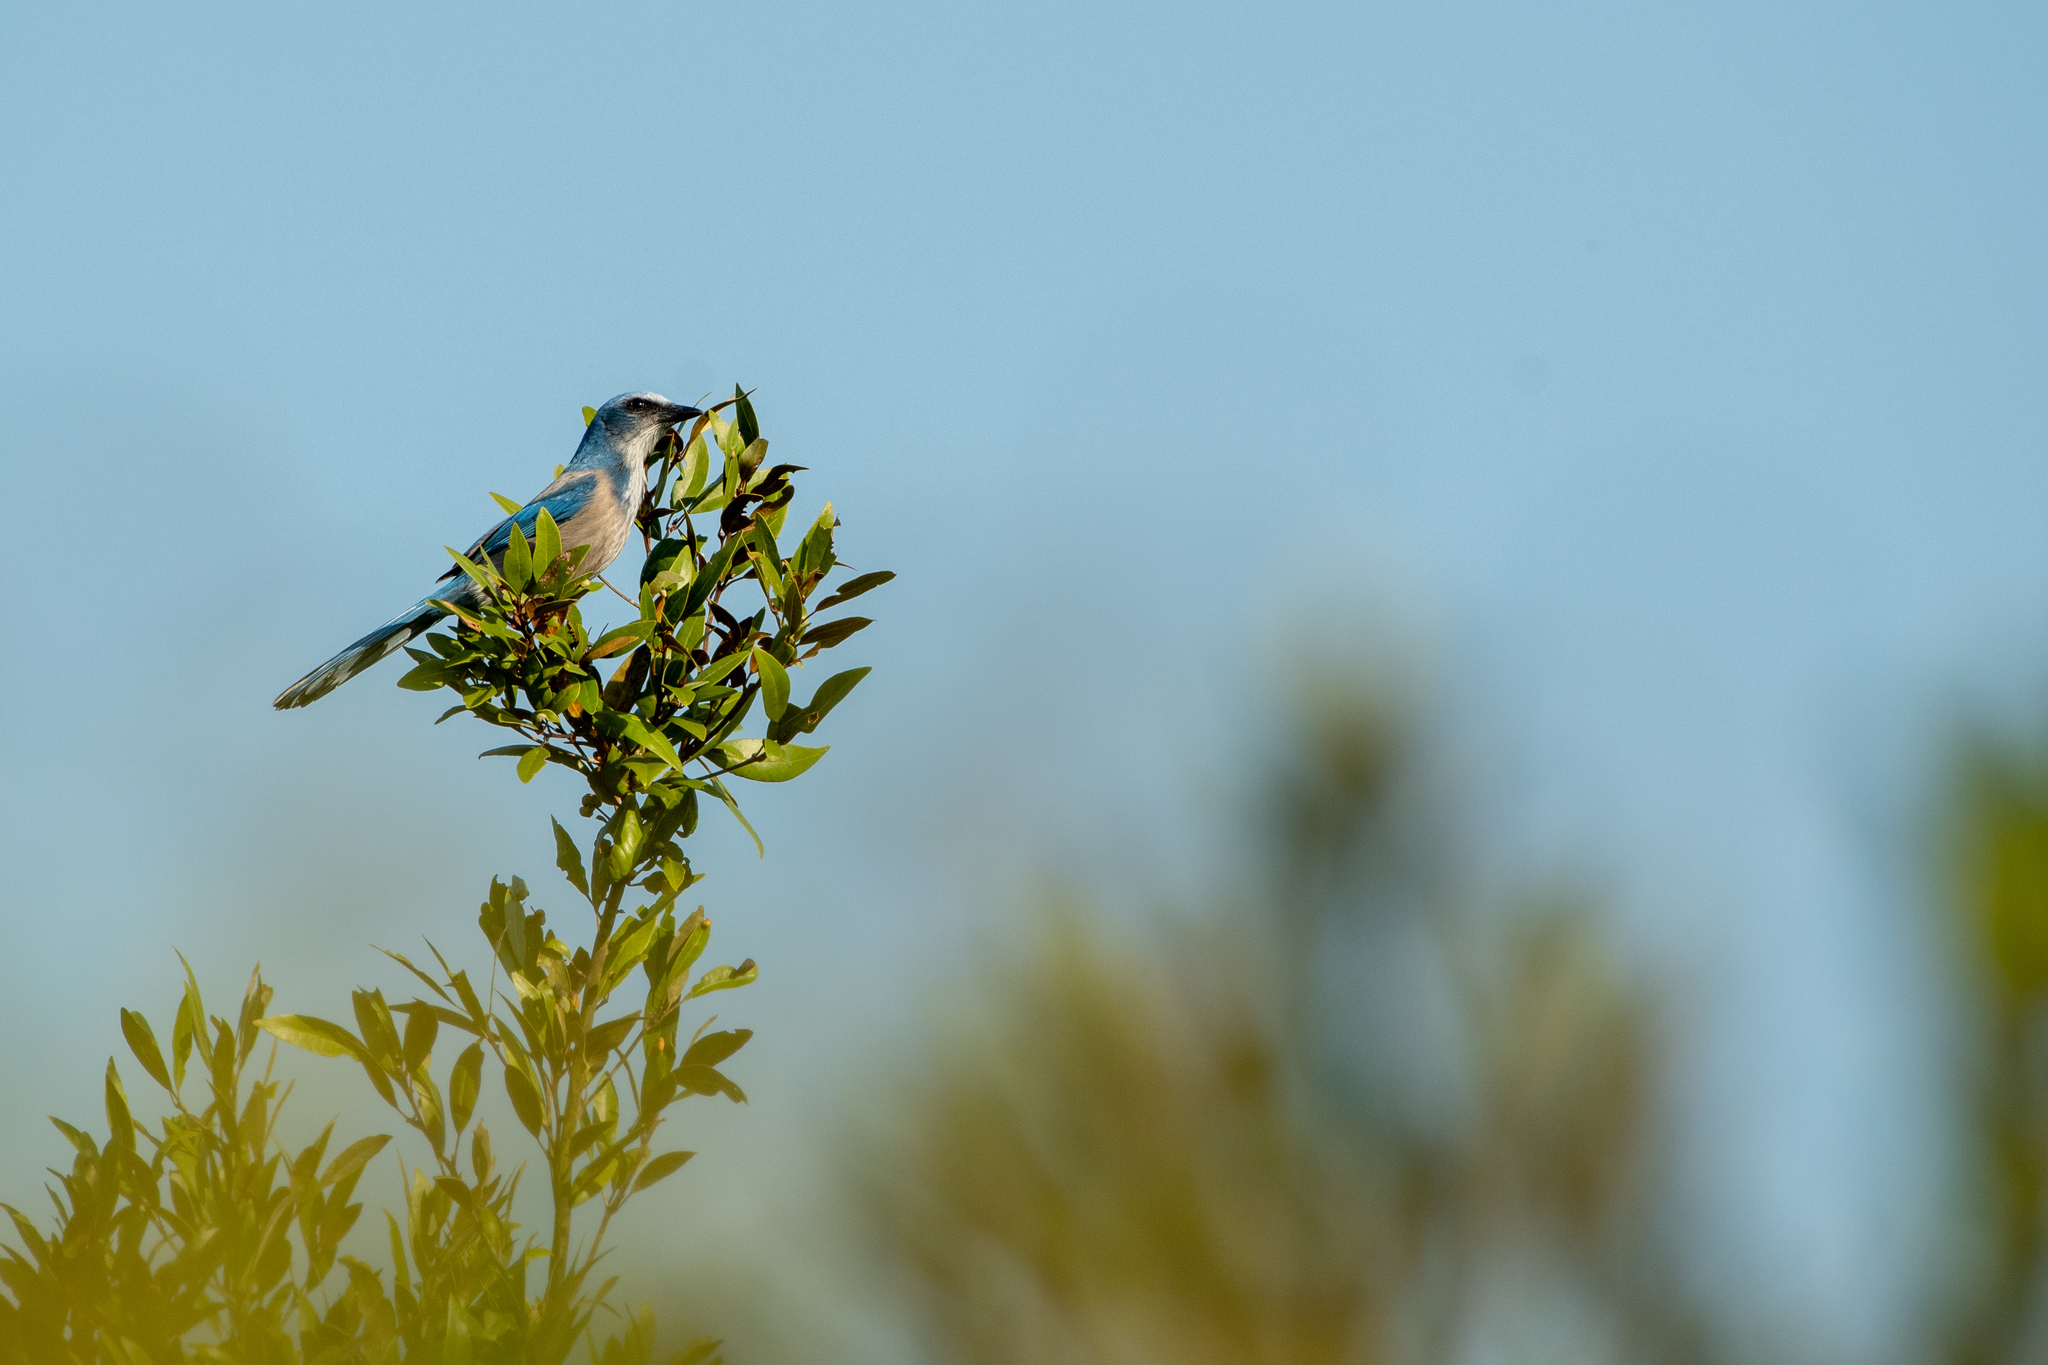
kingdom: Animalia
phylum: Chordata
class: Aves
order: Passeriformes
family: Corvidae
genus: Aphelocoma
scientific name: Aphelocoma coerulescens
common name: Florida scrub jay
